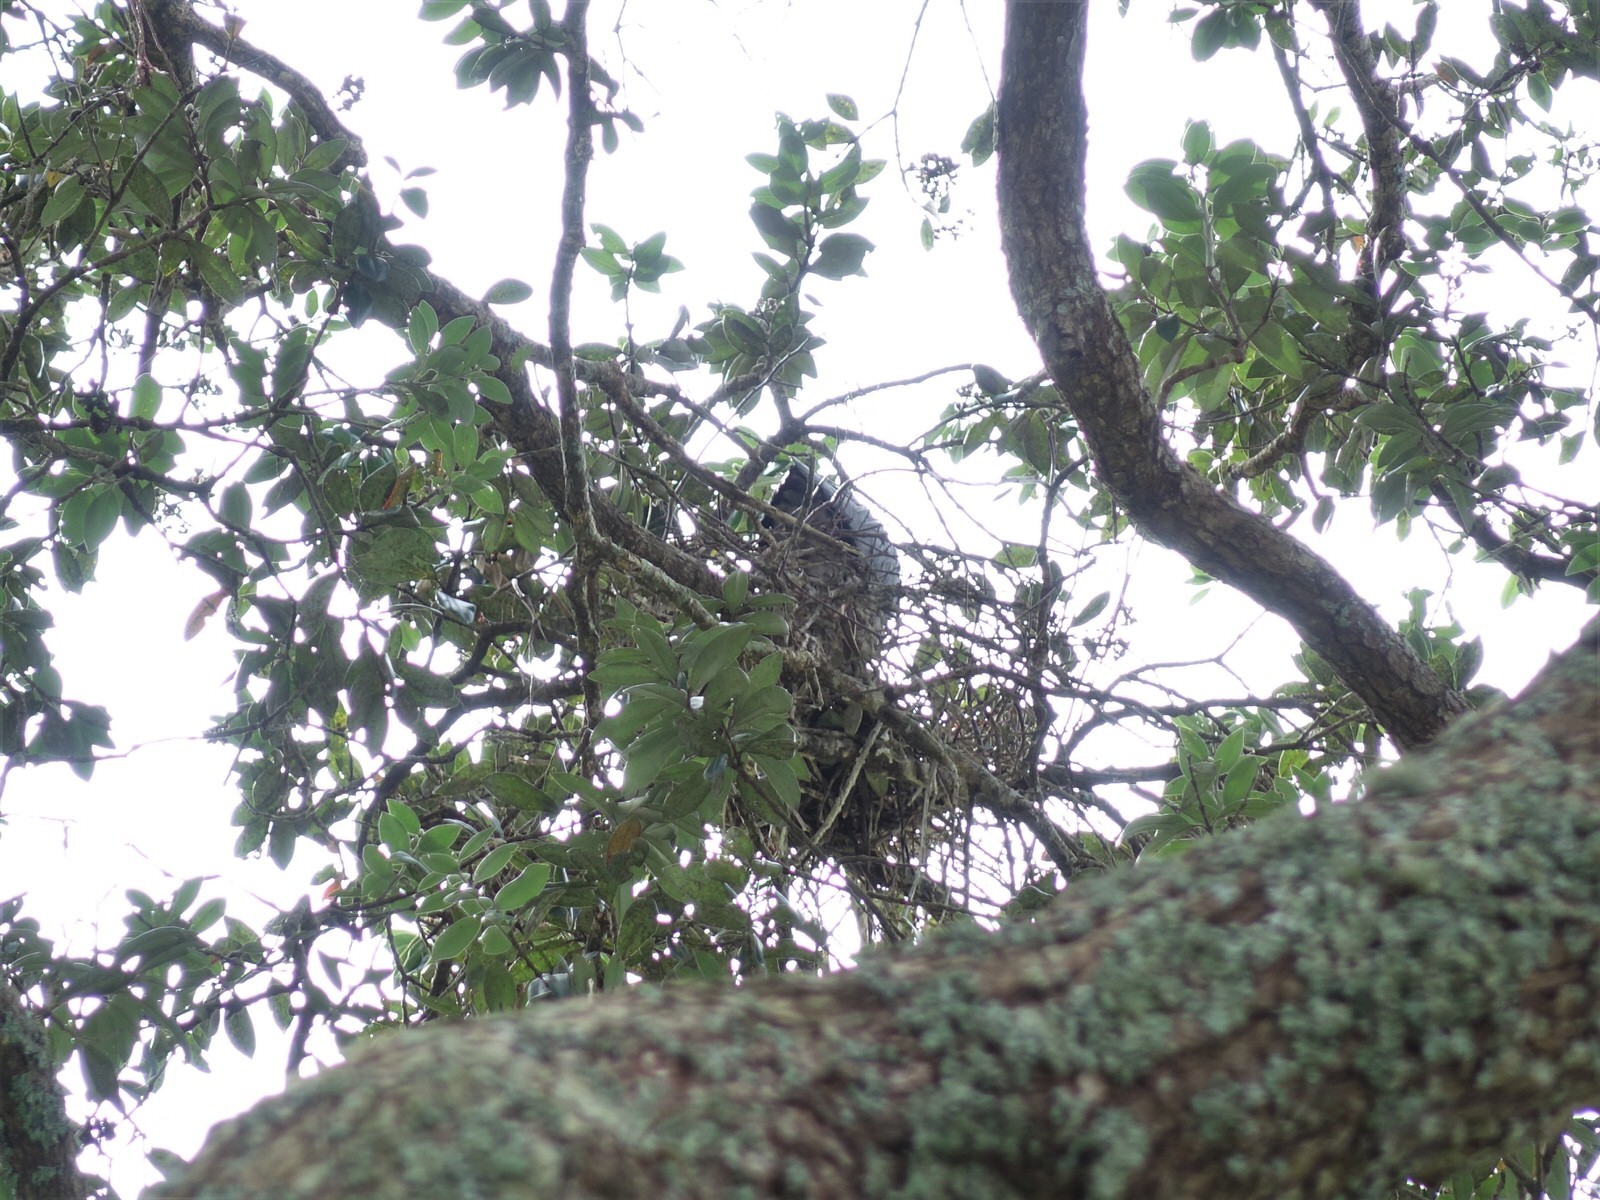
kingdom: Animalia
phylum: Chordata
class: Aves
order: Pelecaniformes
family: Ardeidae
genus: Egretta
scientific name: Egretta novaehollandiae
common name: White-faced heron
